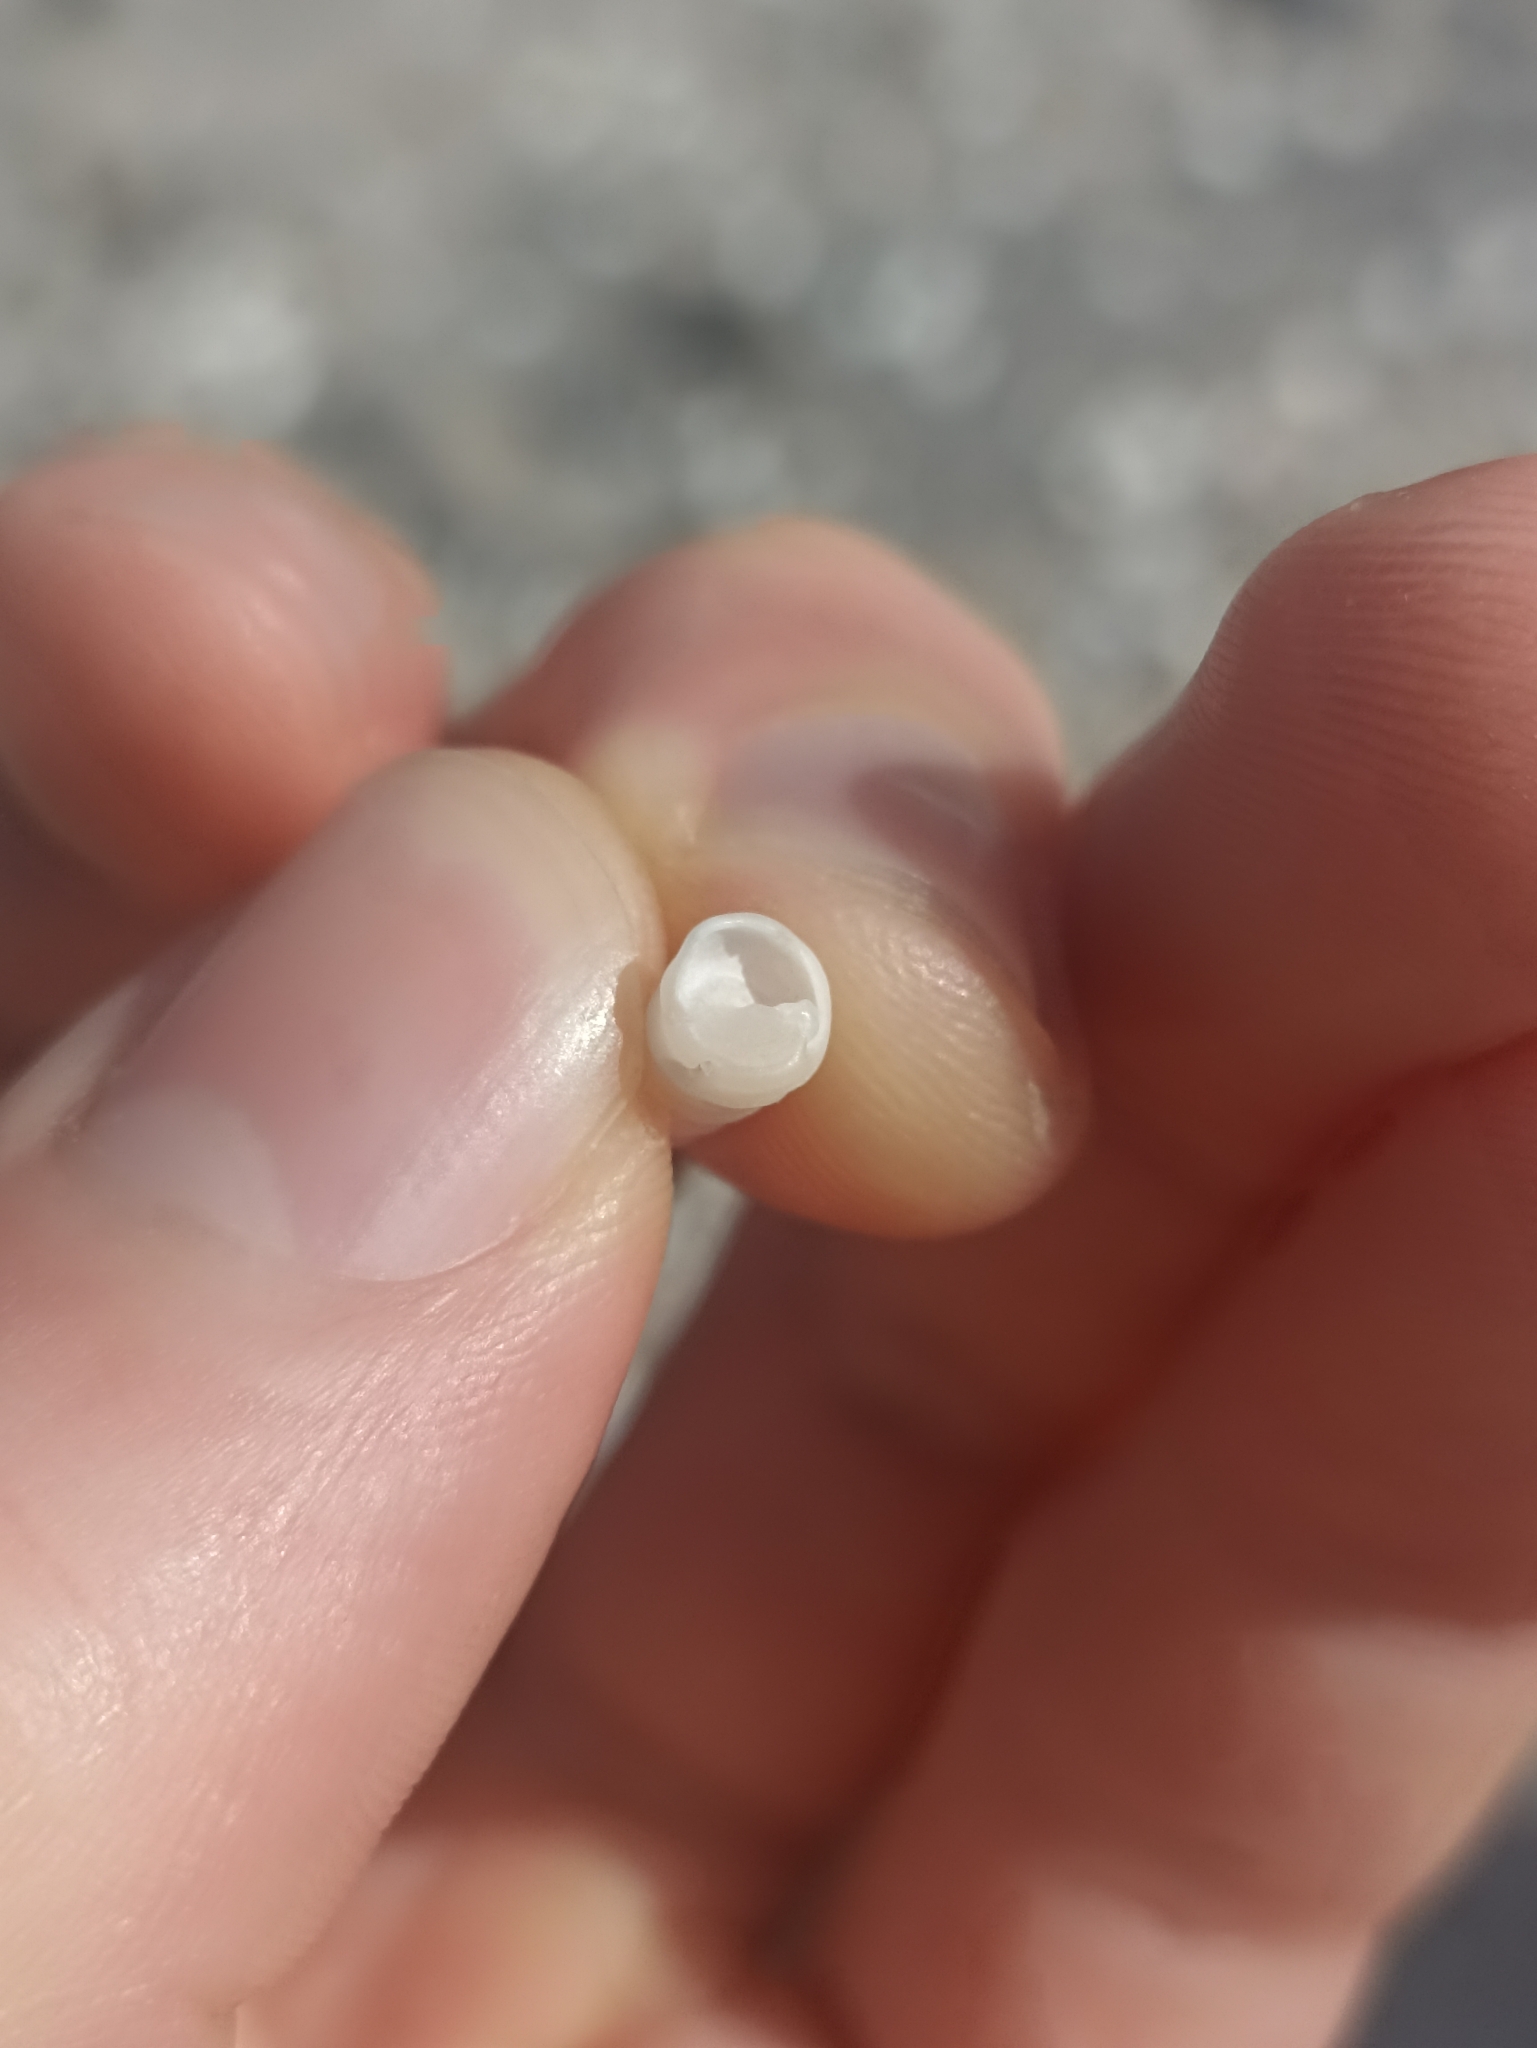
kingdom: Animalia
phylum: Mollusca
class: Gastropoda
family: Turritellidae
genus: Stiracolpus
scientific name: Stiracolpus pagoda
